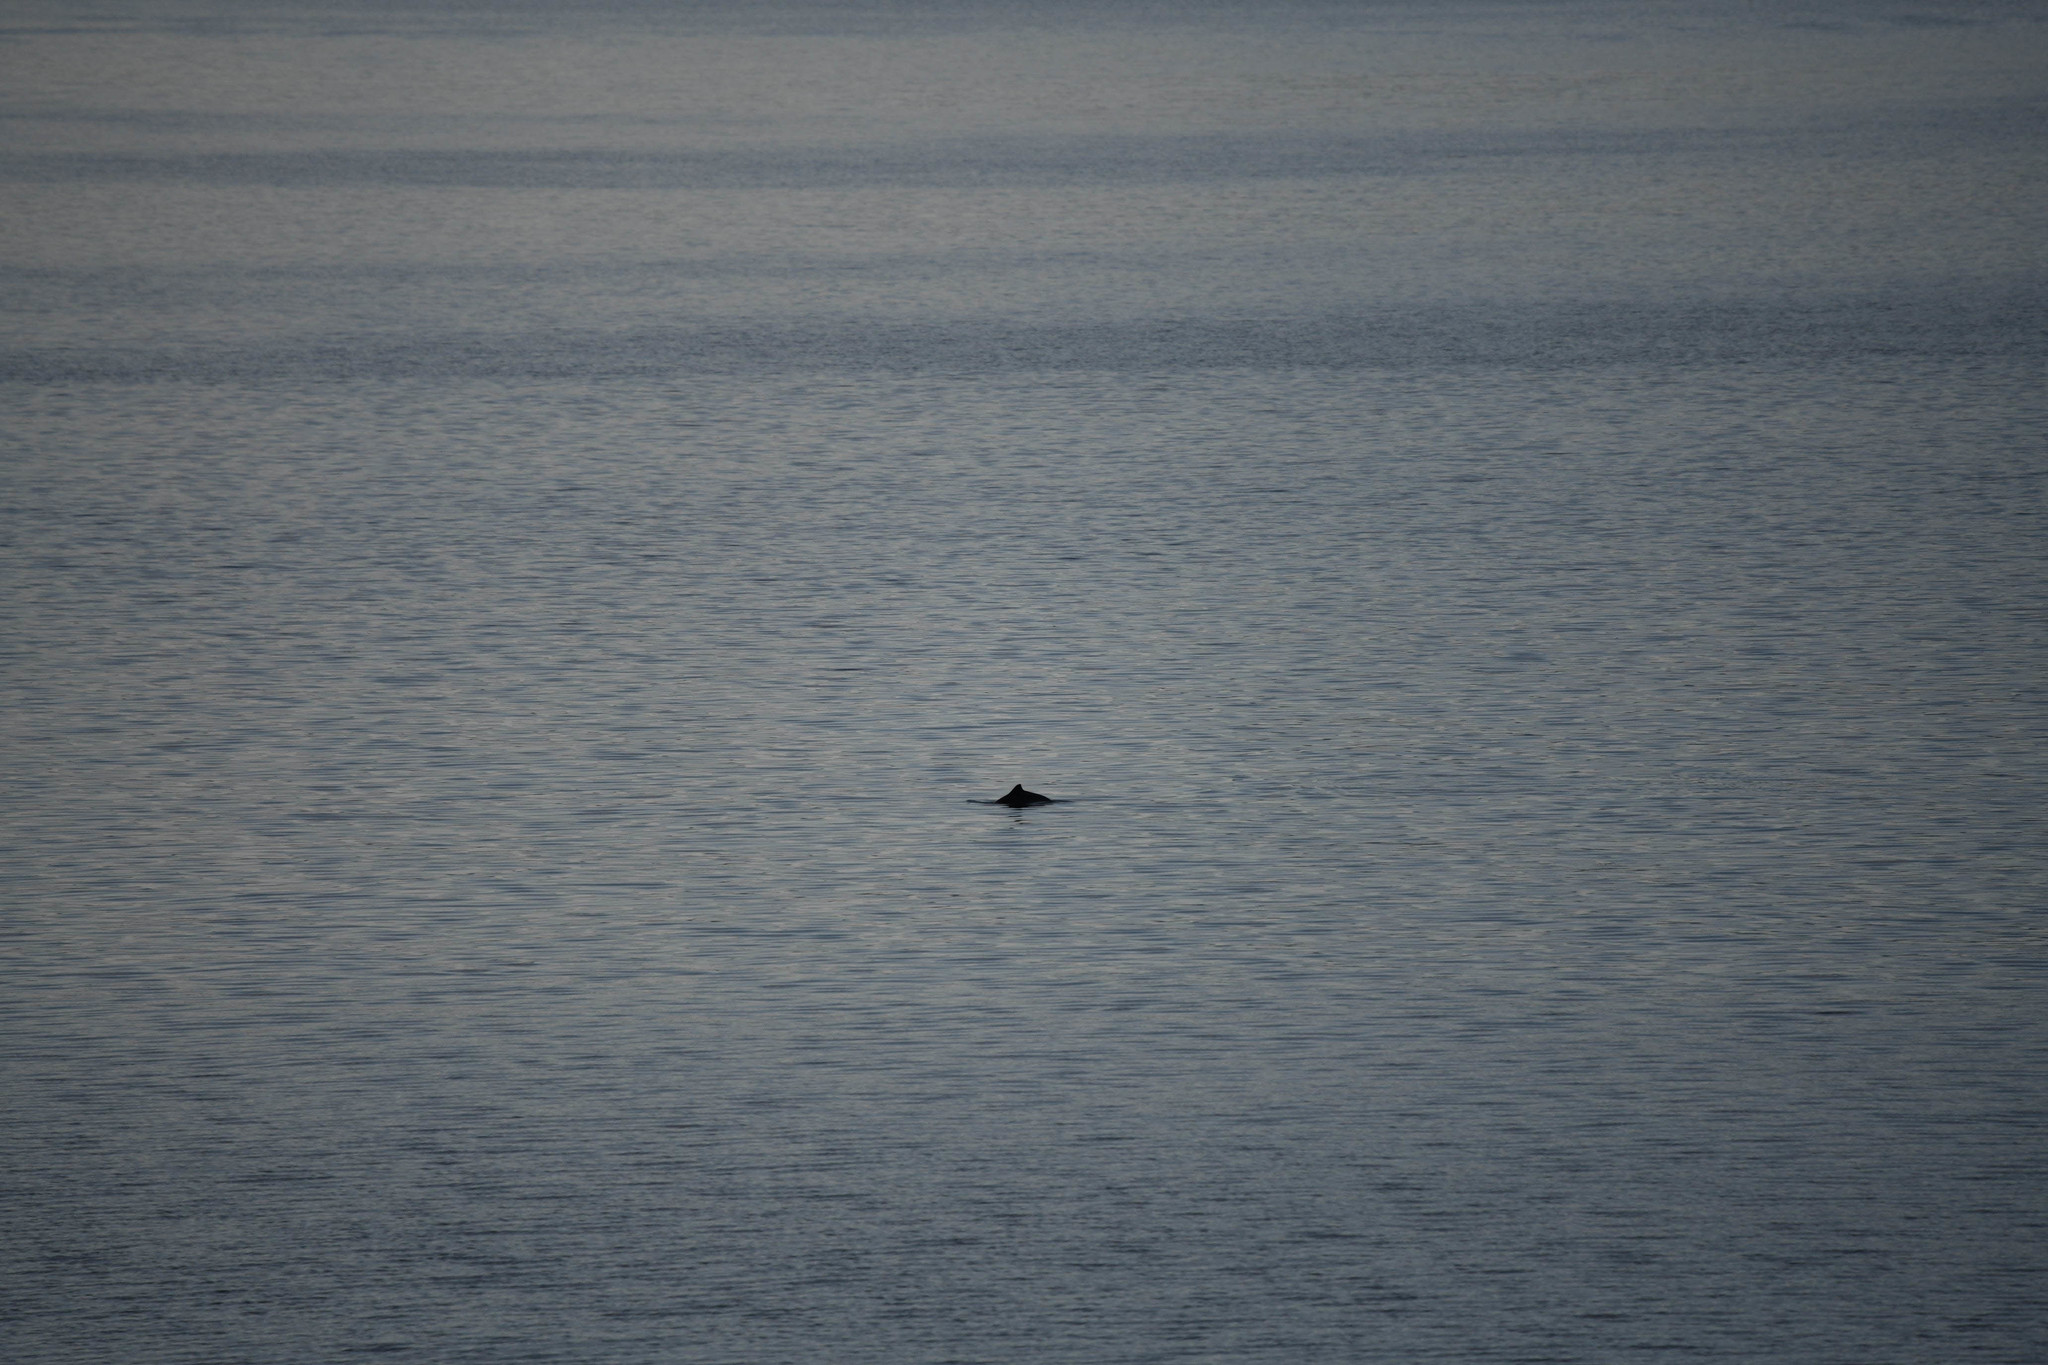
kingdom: Animalia
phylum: Chordata
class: Mammalia
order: Cetacea
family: Phocoenidae
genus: Phocoena
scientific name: Phocoena phocoena
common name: Harbor porpoise
